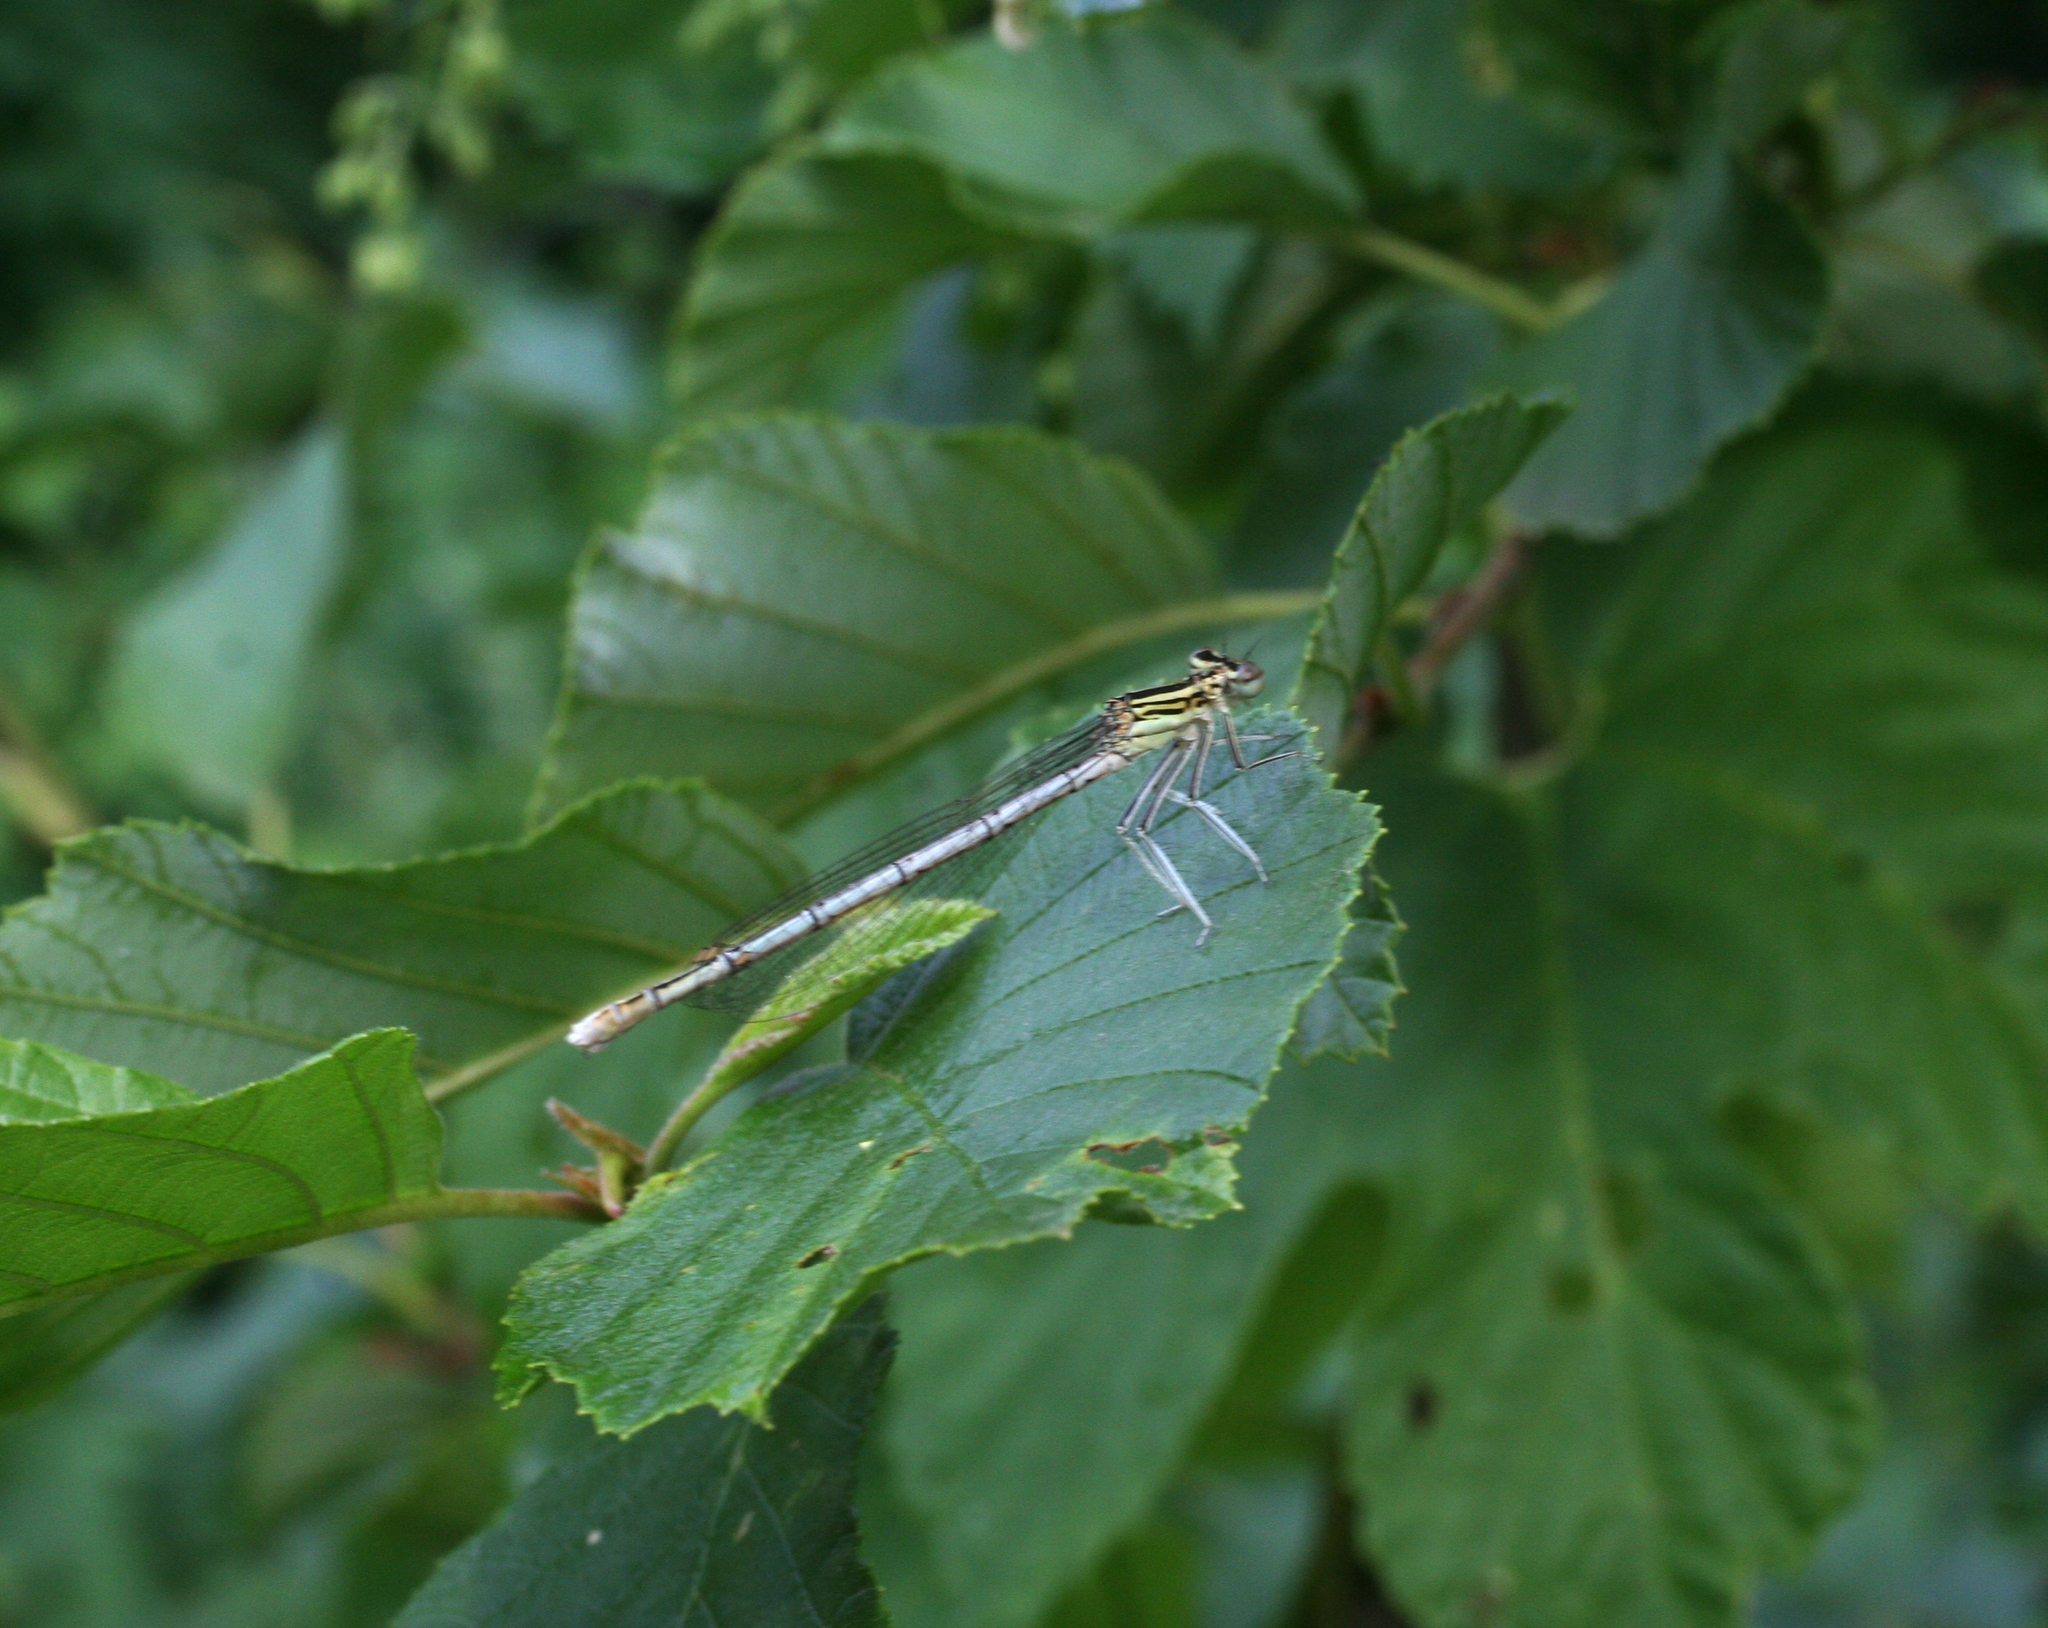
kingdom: Animalia
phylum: Arthropoda
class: Insecta
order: Odonata
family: Platycnemididae
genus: Platycnemis
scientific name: Platycnemis pennipes
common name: White-legged damselfly
